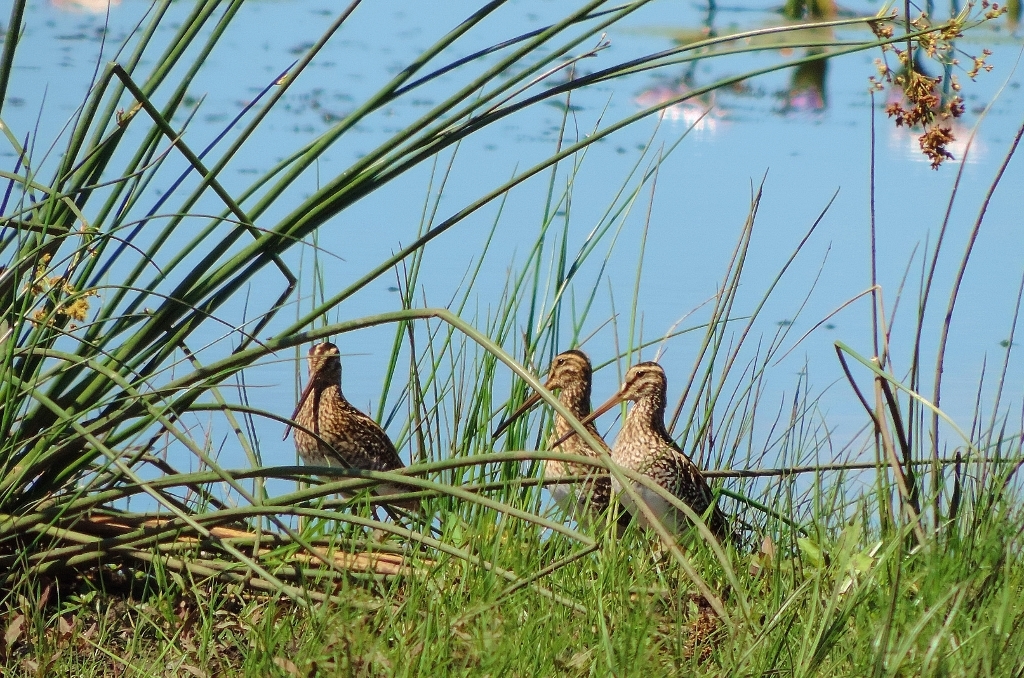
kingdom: Animalia
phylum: Chordata
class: Aves
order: Charadriiformes
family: Scolopacidae
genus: Gallinago
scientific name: Gallinago nigripennis
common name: African snipe
